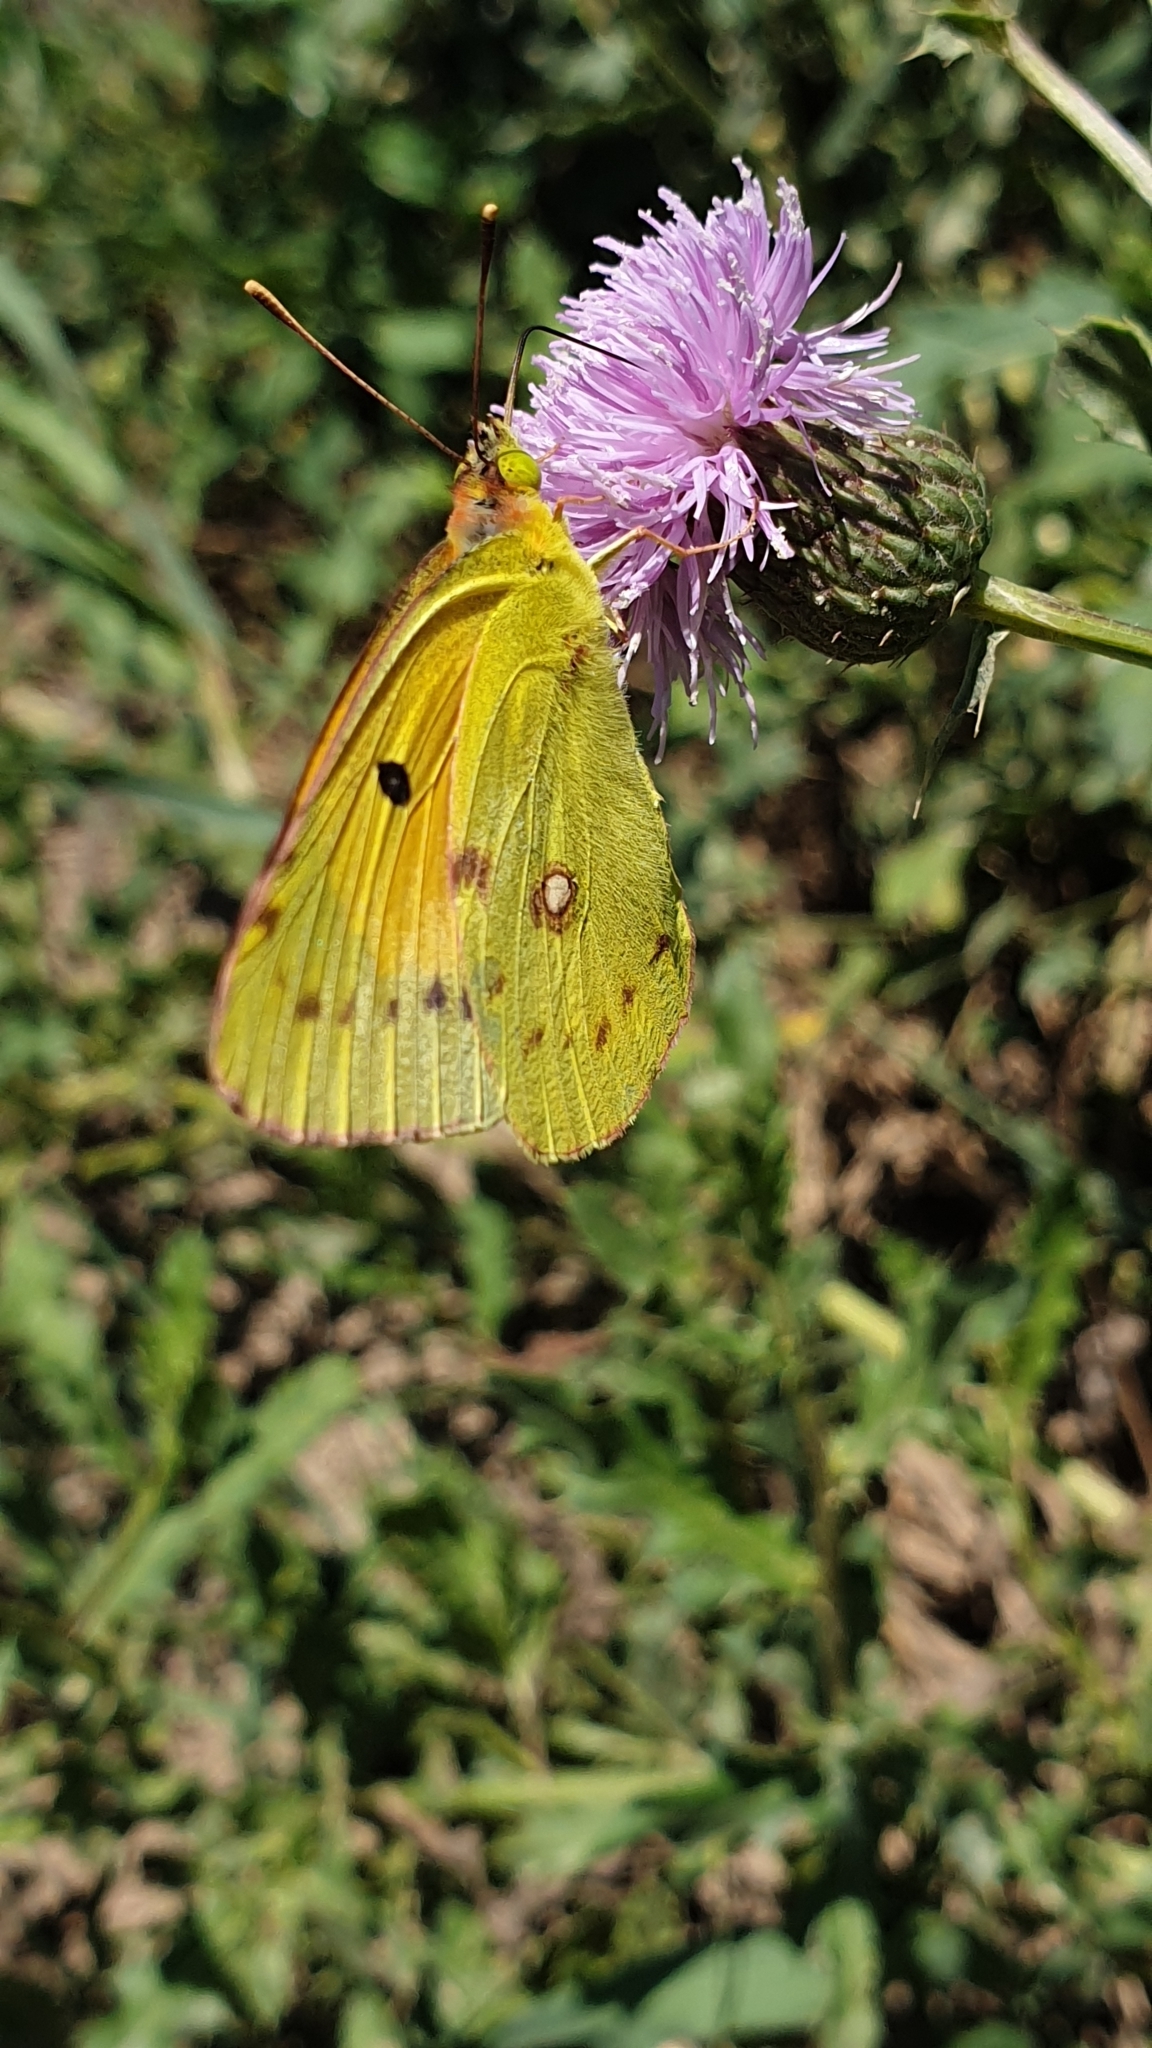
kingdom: Animalia
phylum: Arthropoda
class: Insecta
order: Lepidoptera
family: Pieridae
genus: Colias
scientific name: Colias croceus
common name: Clouded yellow
